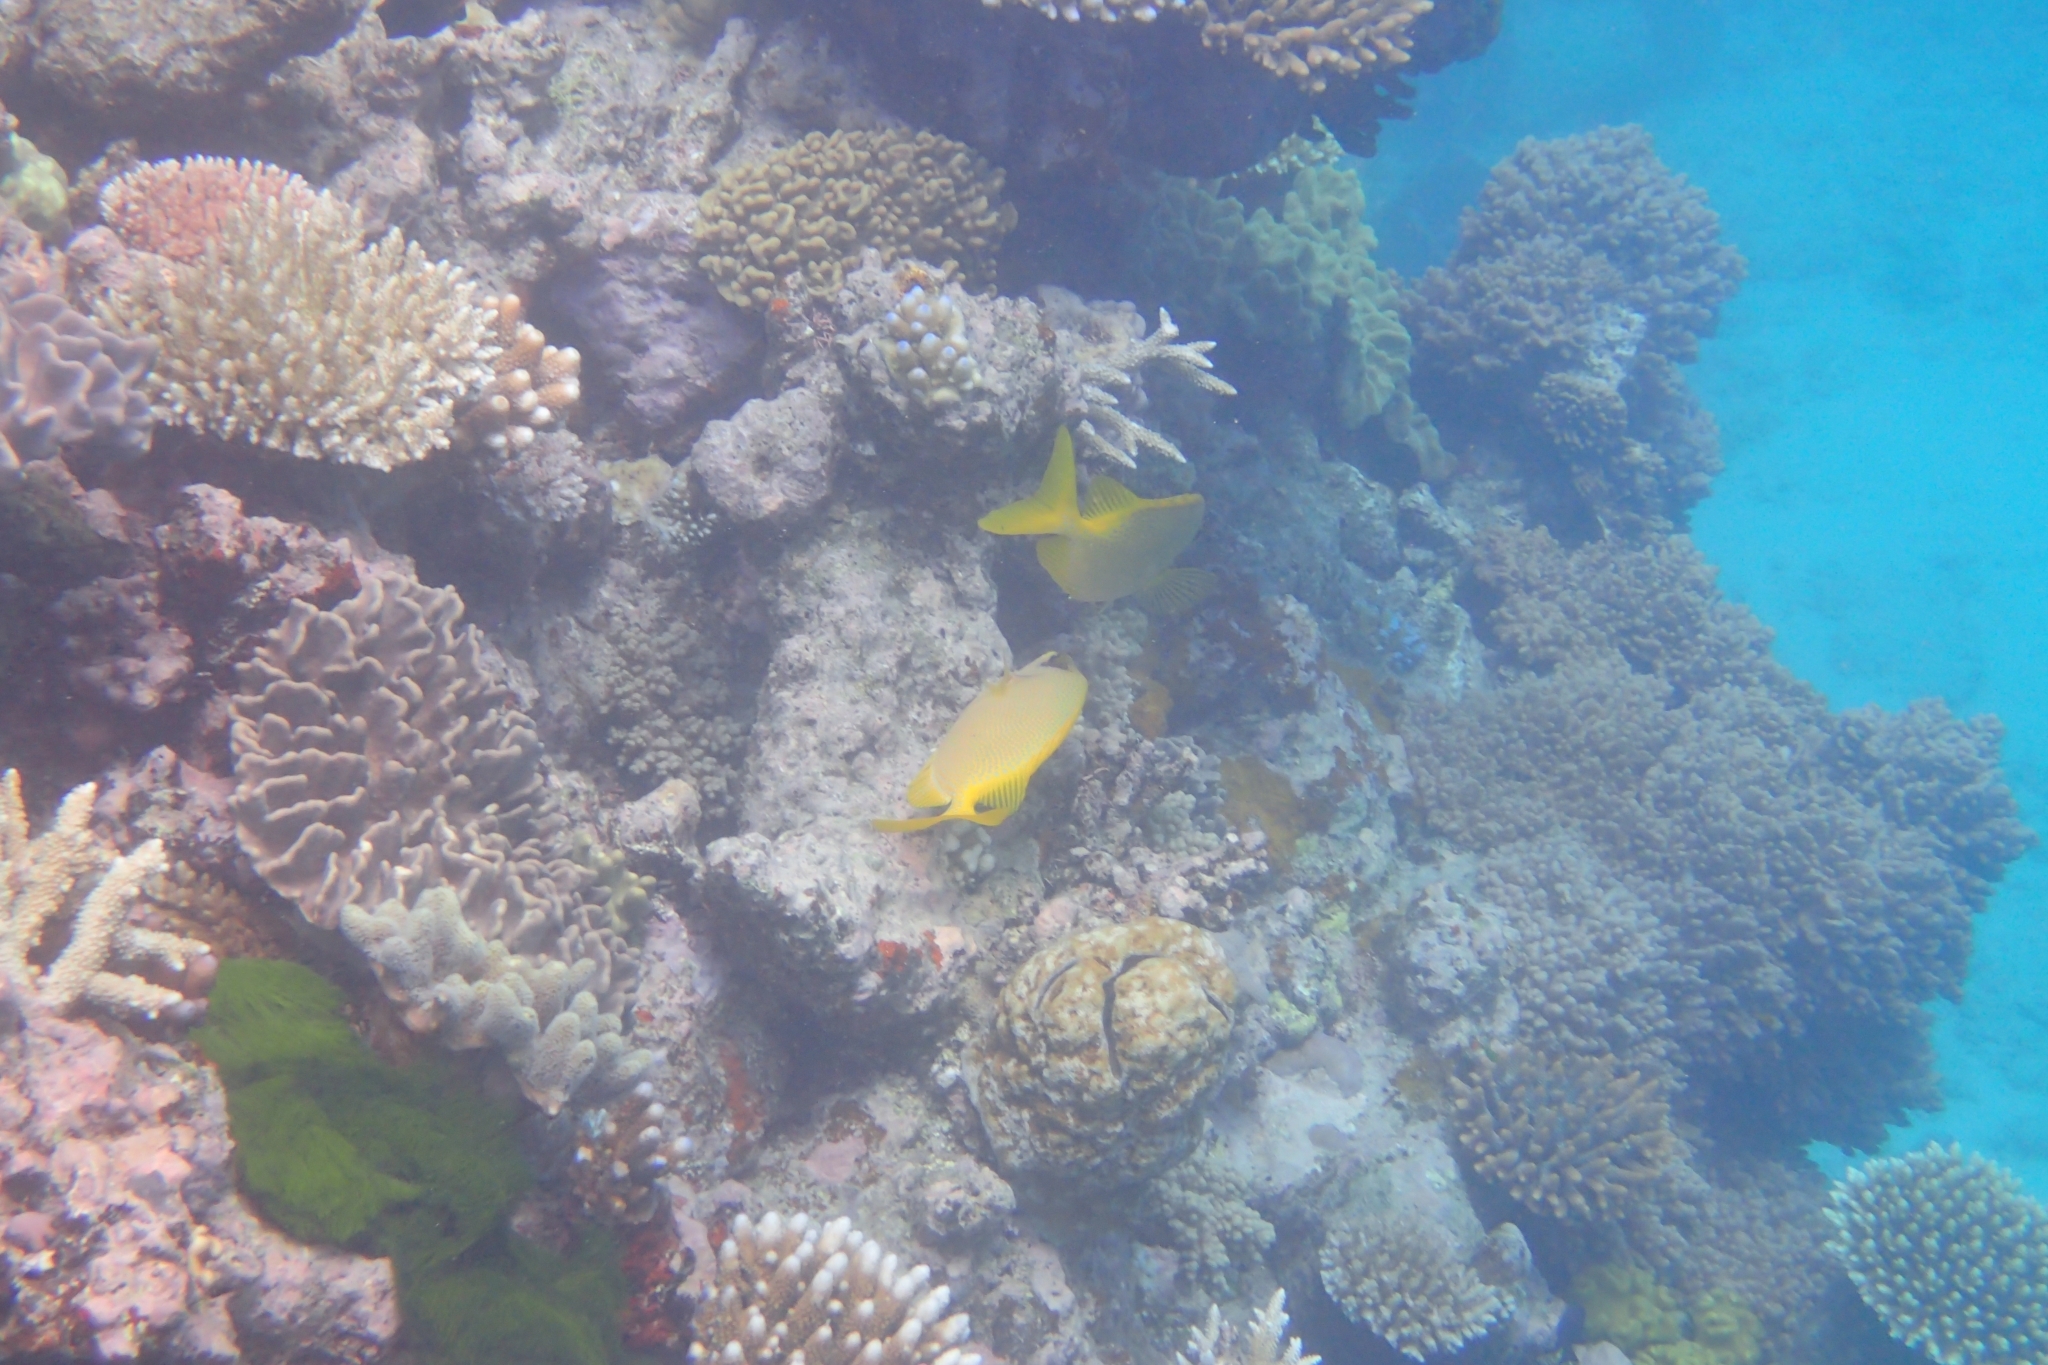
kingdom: Animalia
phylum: Chordata
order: Perciformes
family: Siganidae
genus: Siganus
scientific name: Siganus corallinus
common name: Coral rabbitfish
